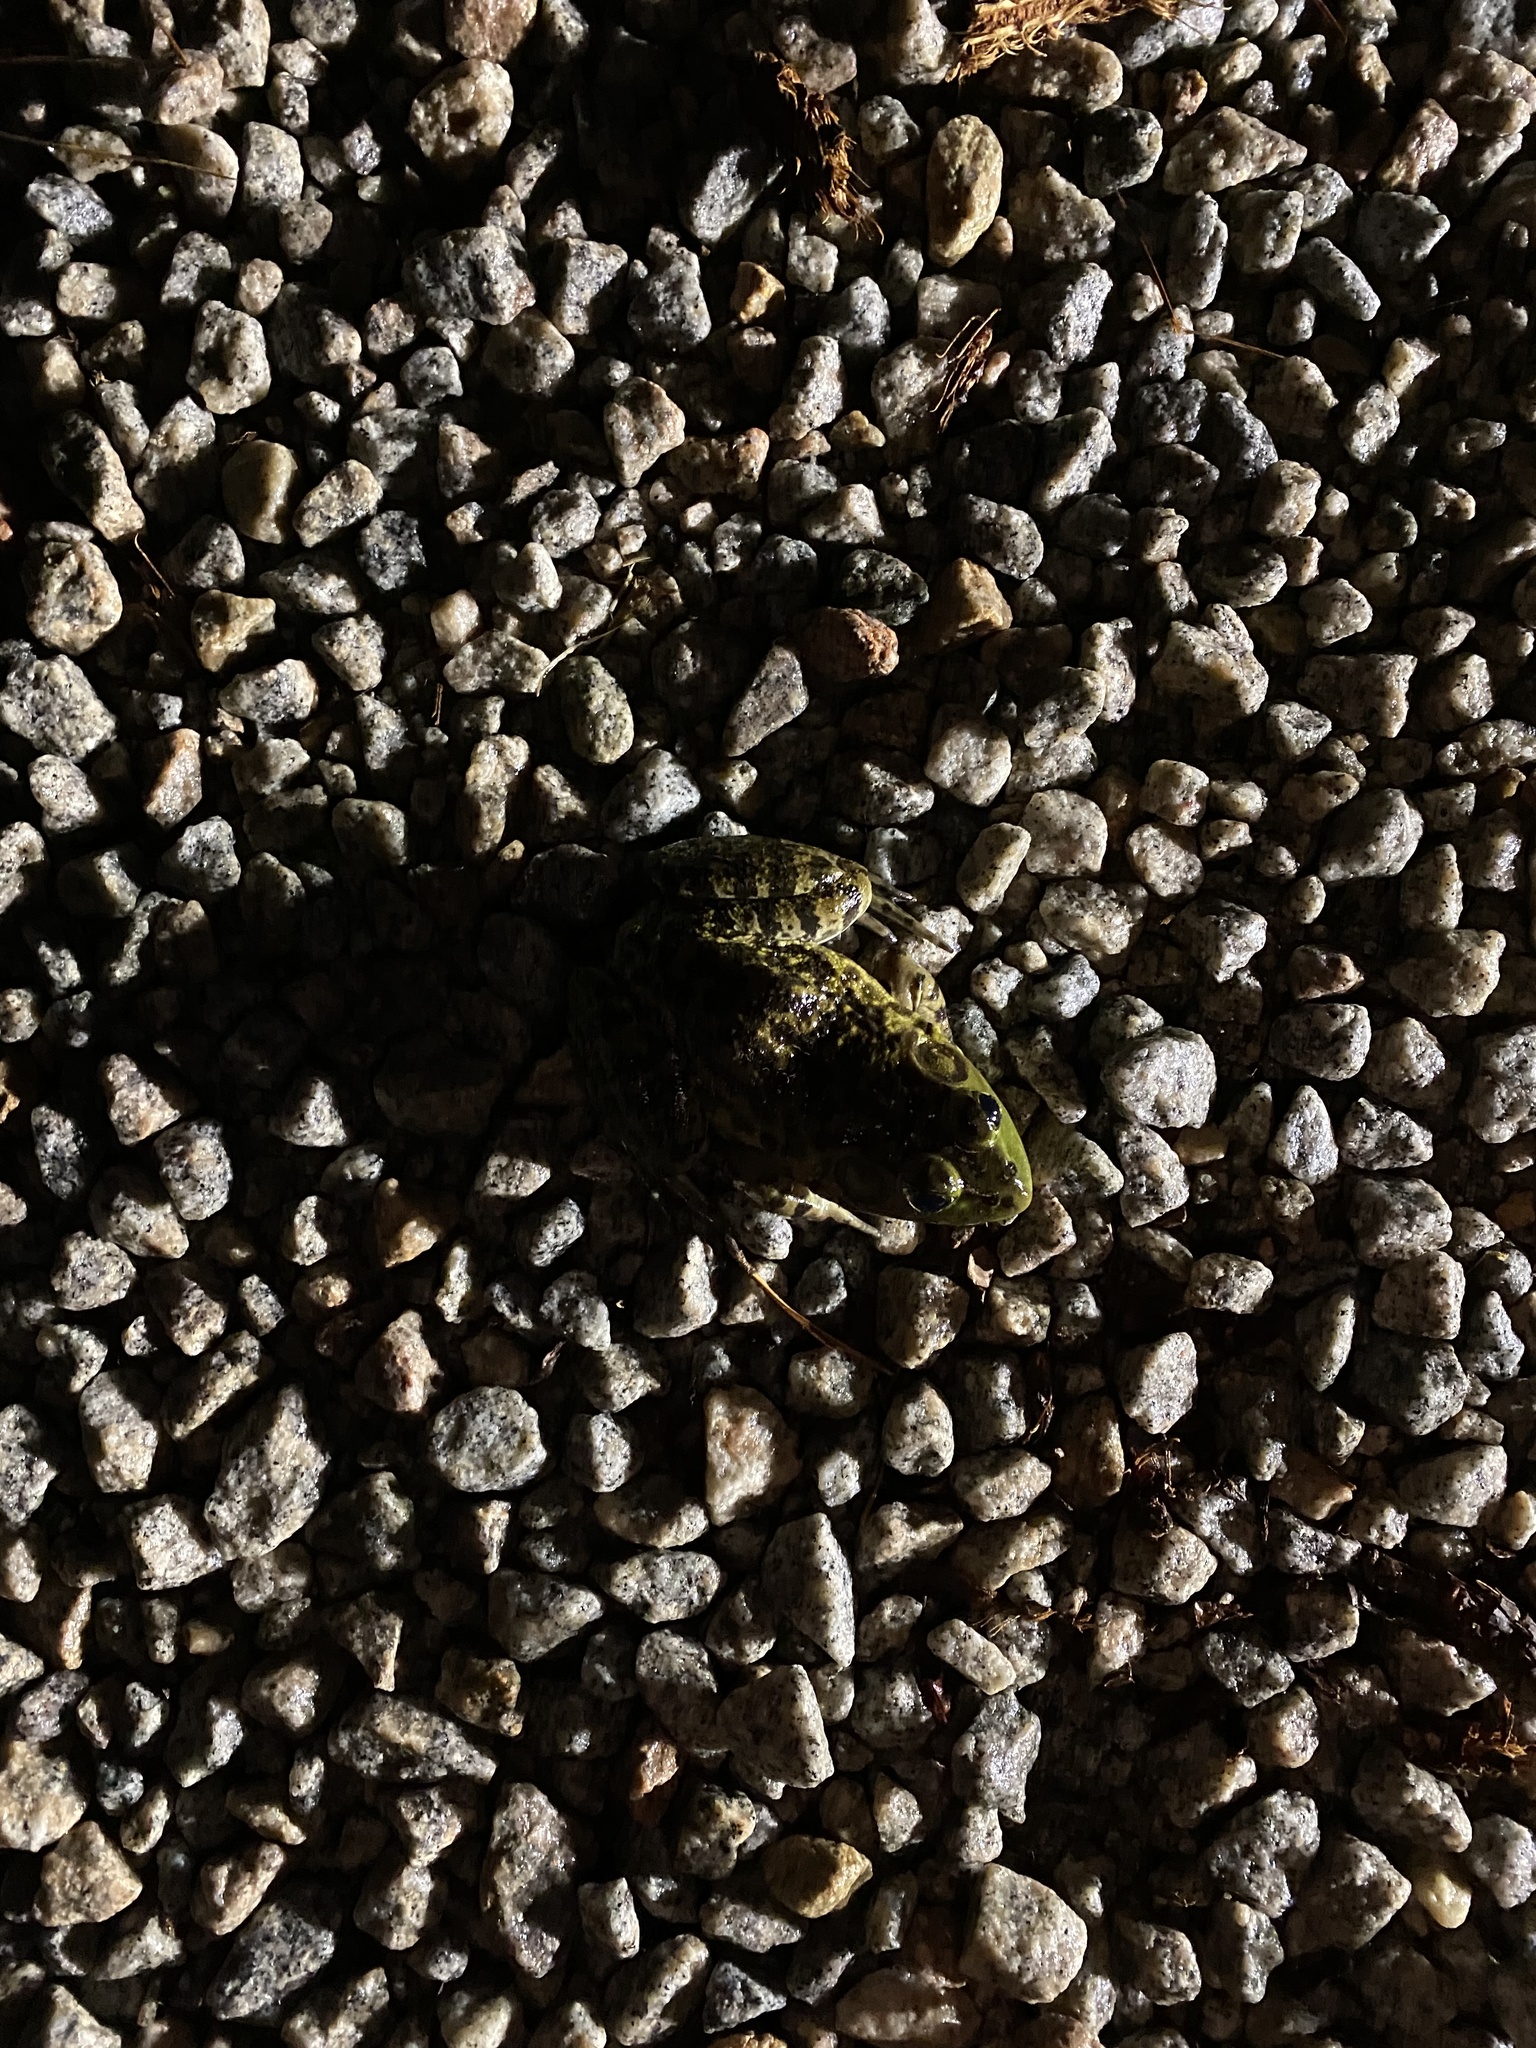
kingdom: Animalia
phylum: Chordata
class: Amphibia
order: Anura
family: Ranidae
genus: Lithobates
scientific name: Lithobates catesbeianus
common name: American bullfrog
